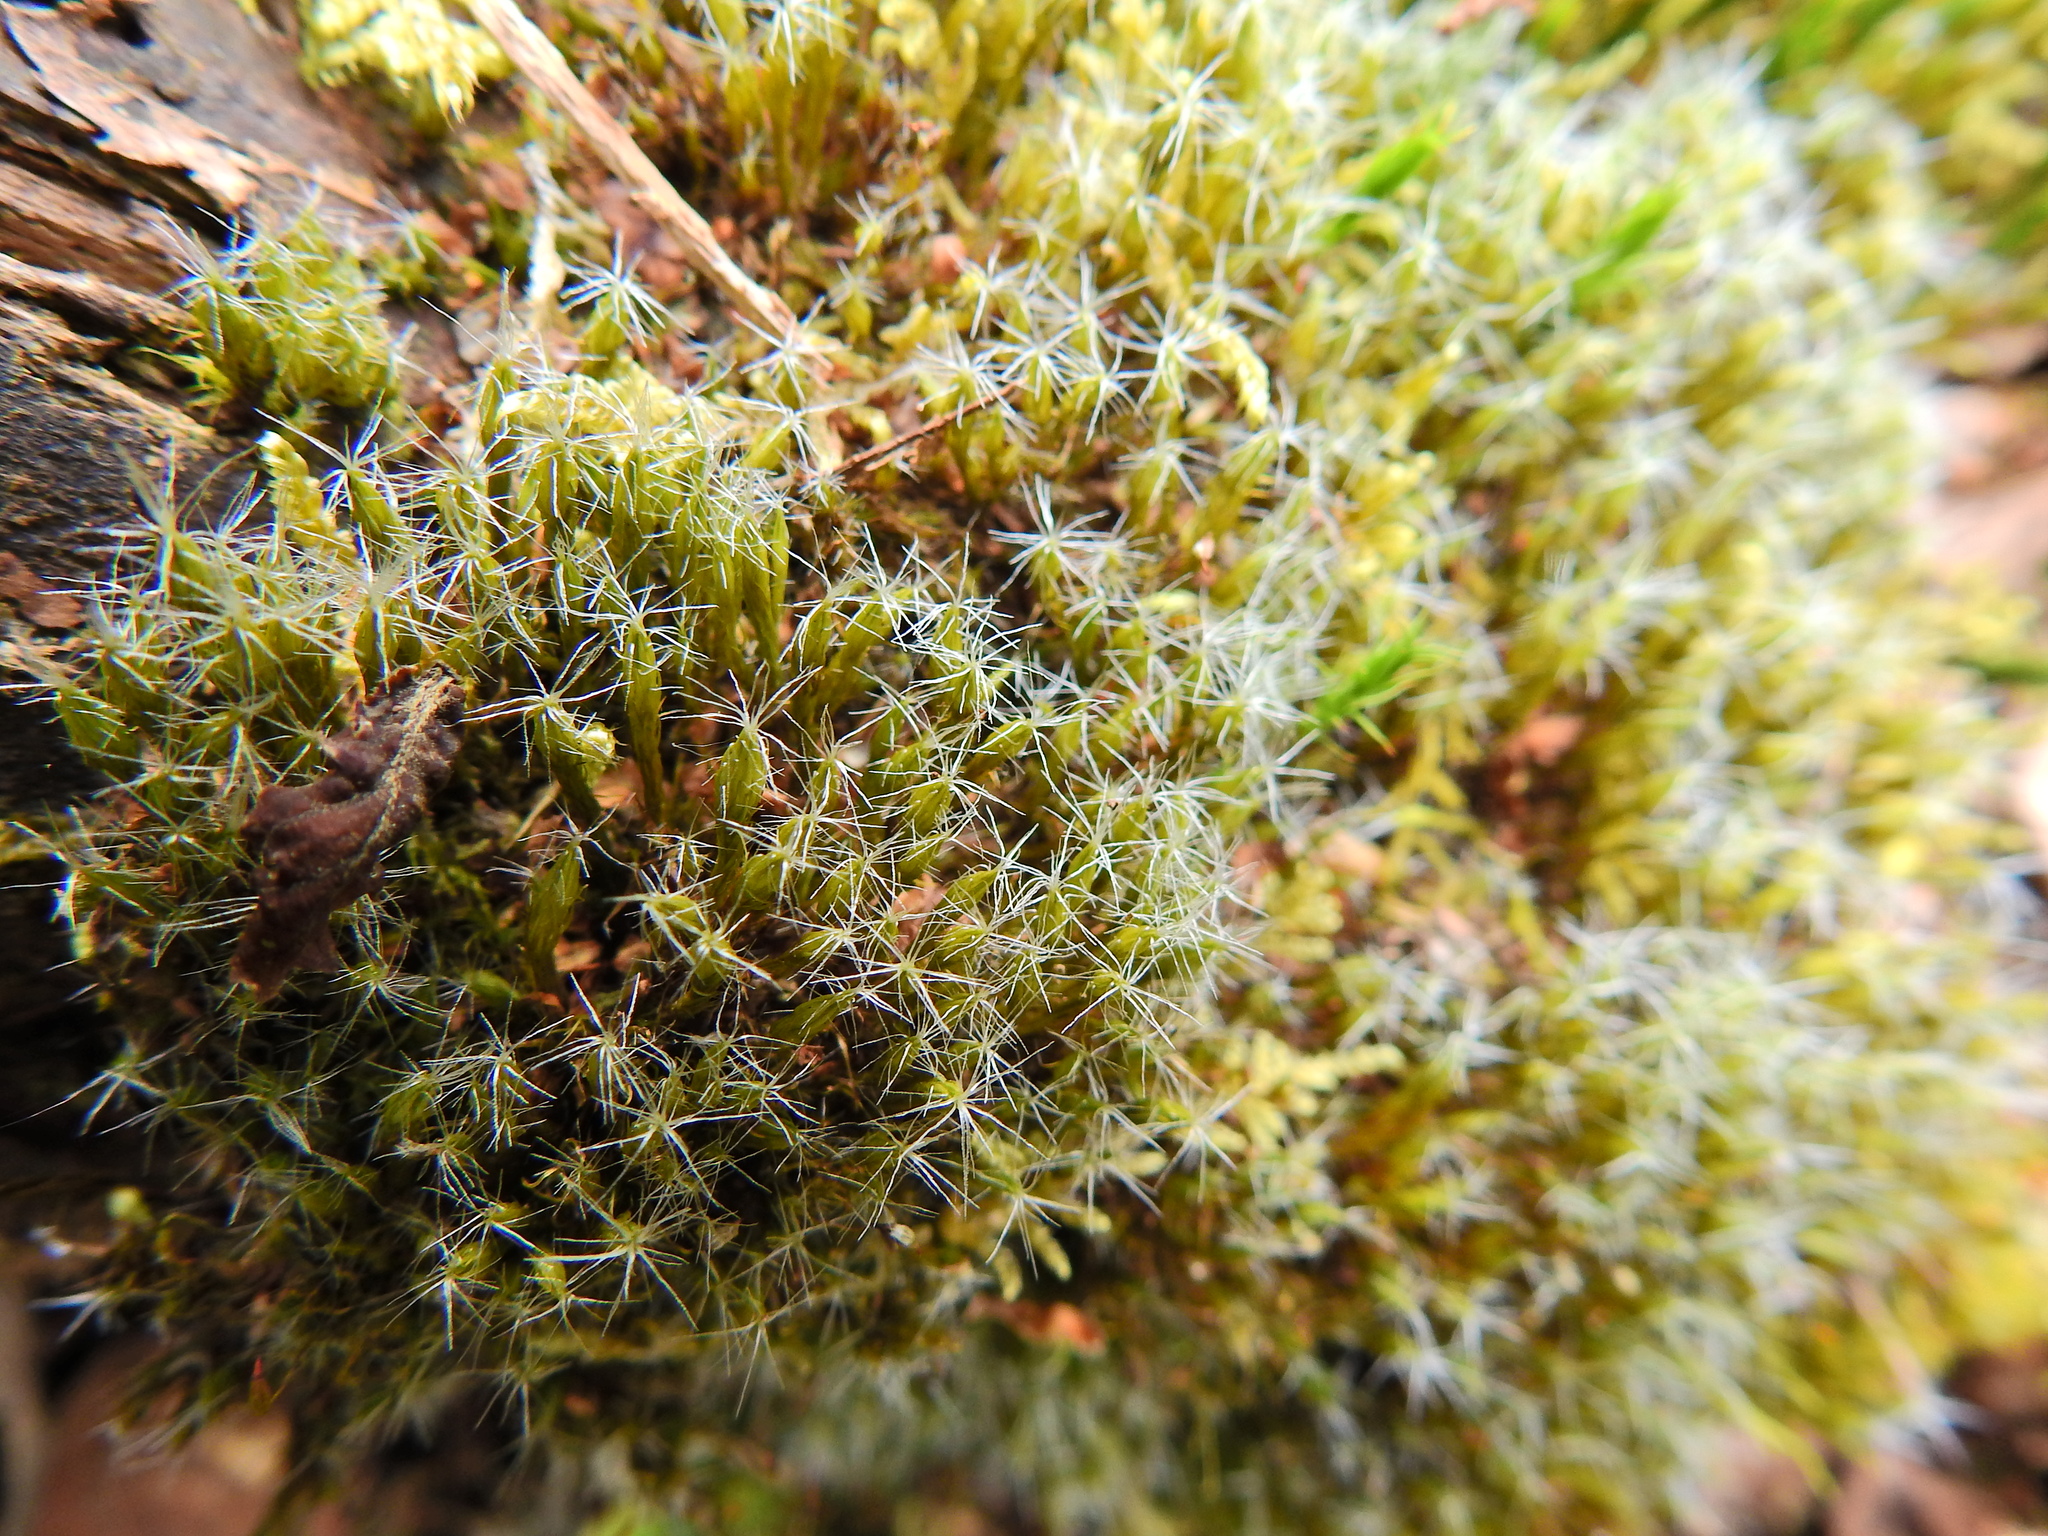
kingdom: Plantae
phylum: Bryophyta
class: Bryopsida
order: Dicranales
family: Leucobryaceae
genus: Campylopus
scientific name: Campylopus introflexus
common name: Heath star moss
